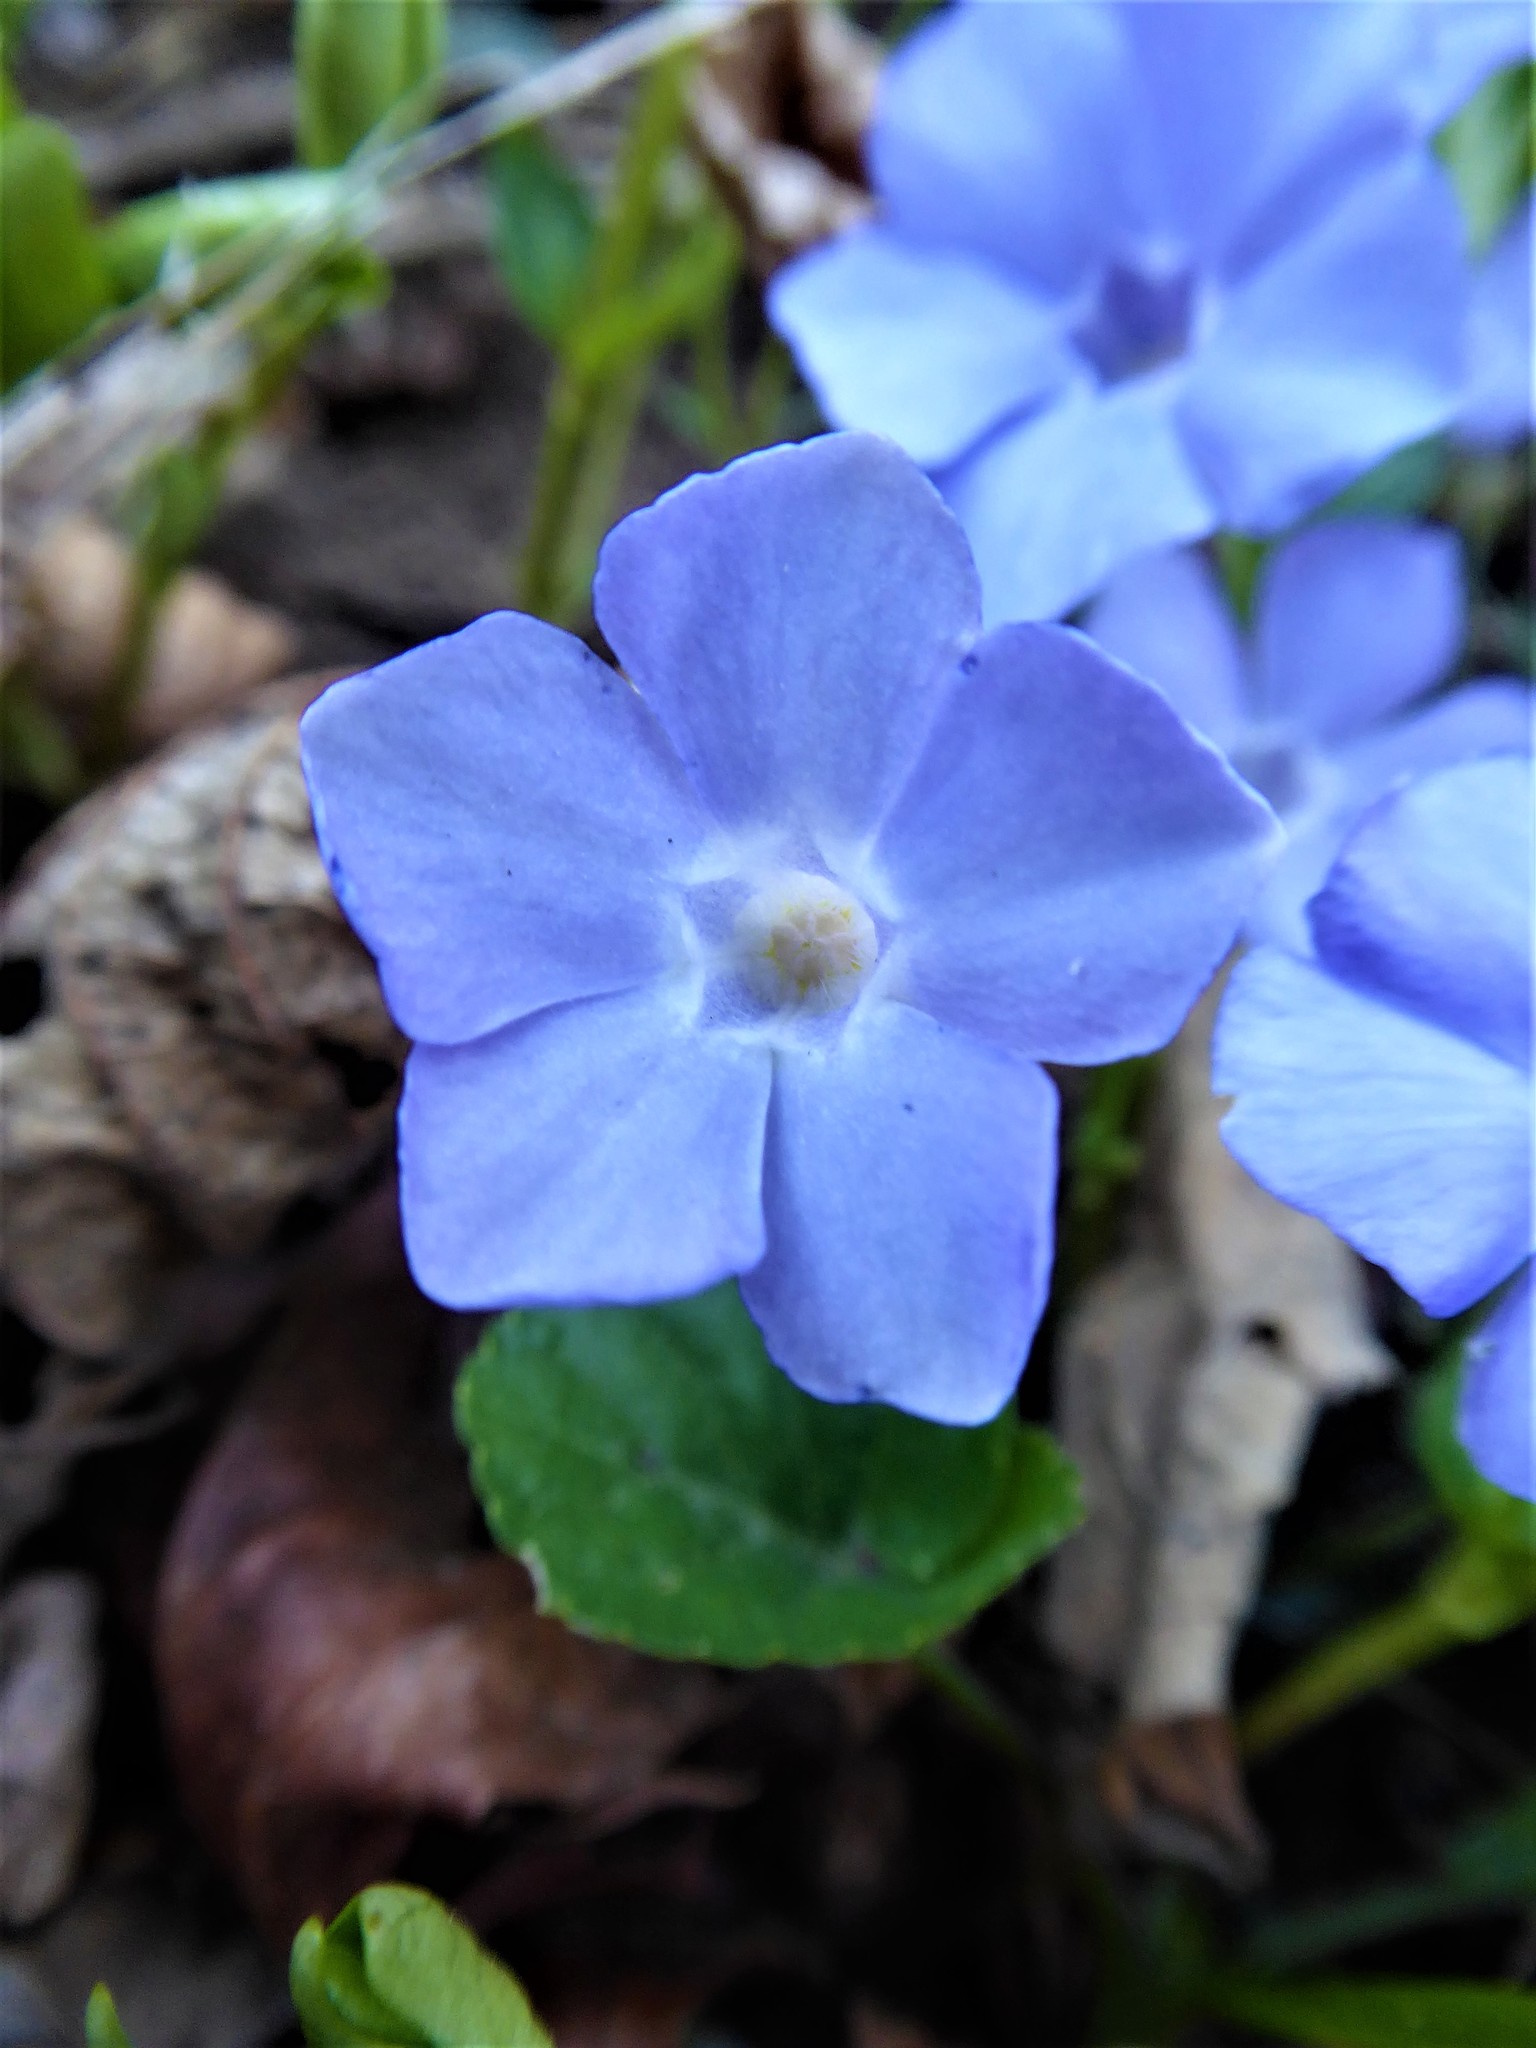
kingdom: Plantae
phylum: Tracheophyta
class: Magnoliopsida
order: Gentianales
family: Apocynaceae
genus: Vinca
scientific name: Vinca minor
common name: Lesser periwinkle
